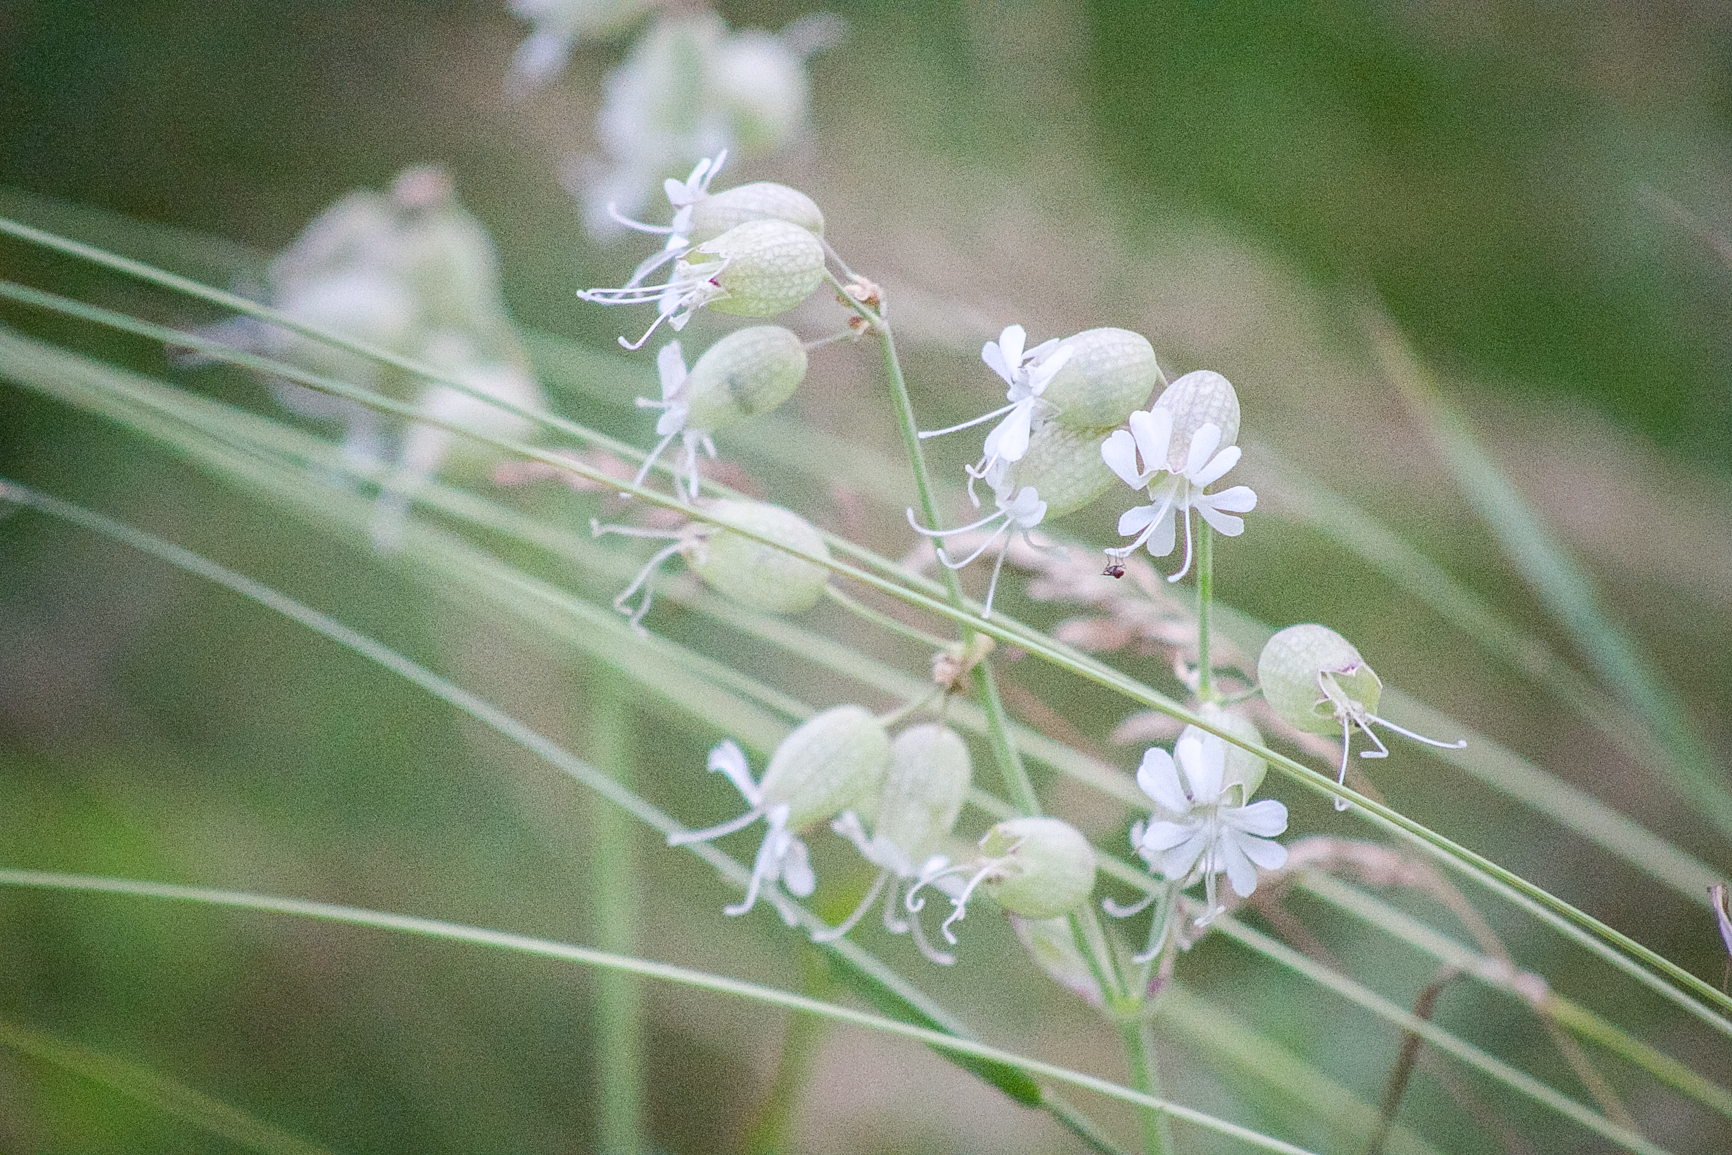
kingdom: Plantae
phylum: Tracheophyta
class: Magnoliopsida
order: Caryophyllales
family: Caryophyllaceae
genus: Silene
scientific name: Silene vulgaris
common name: Bladder campion
